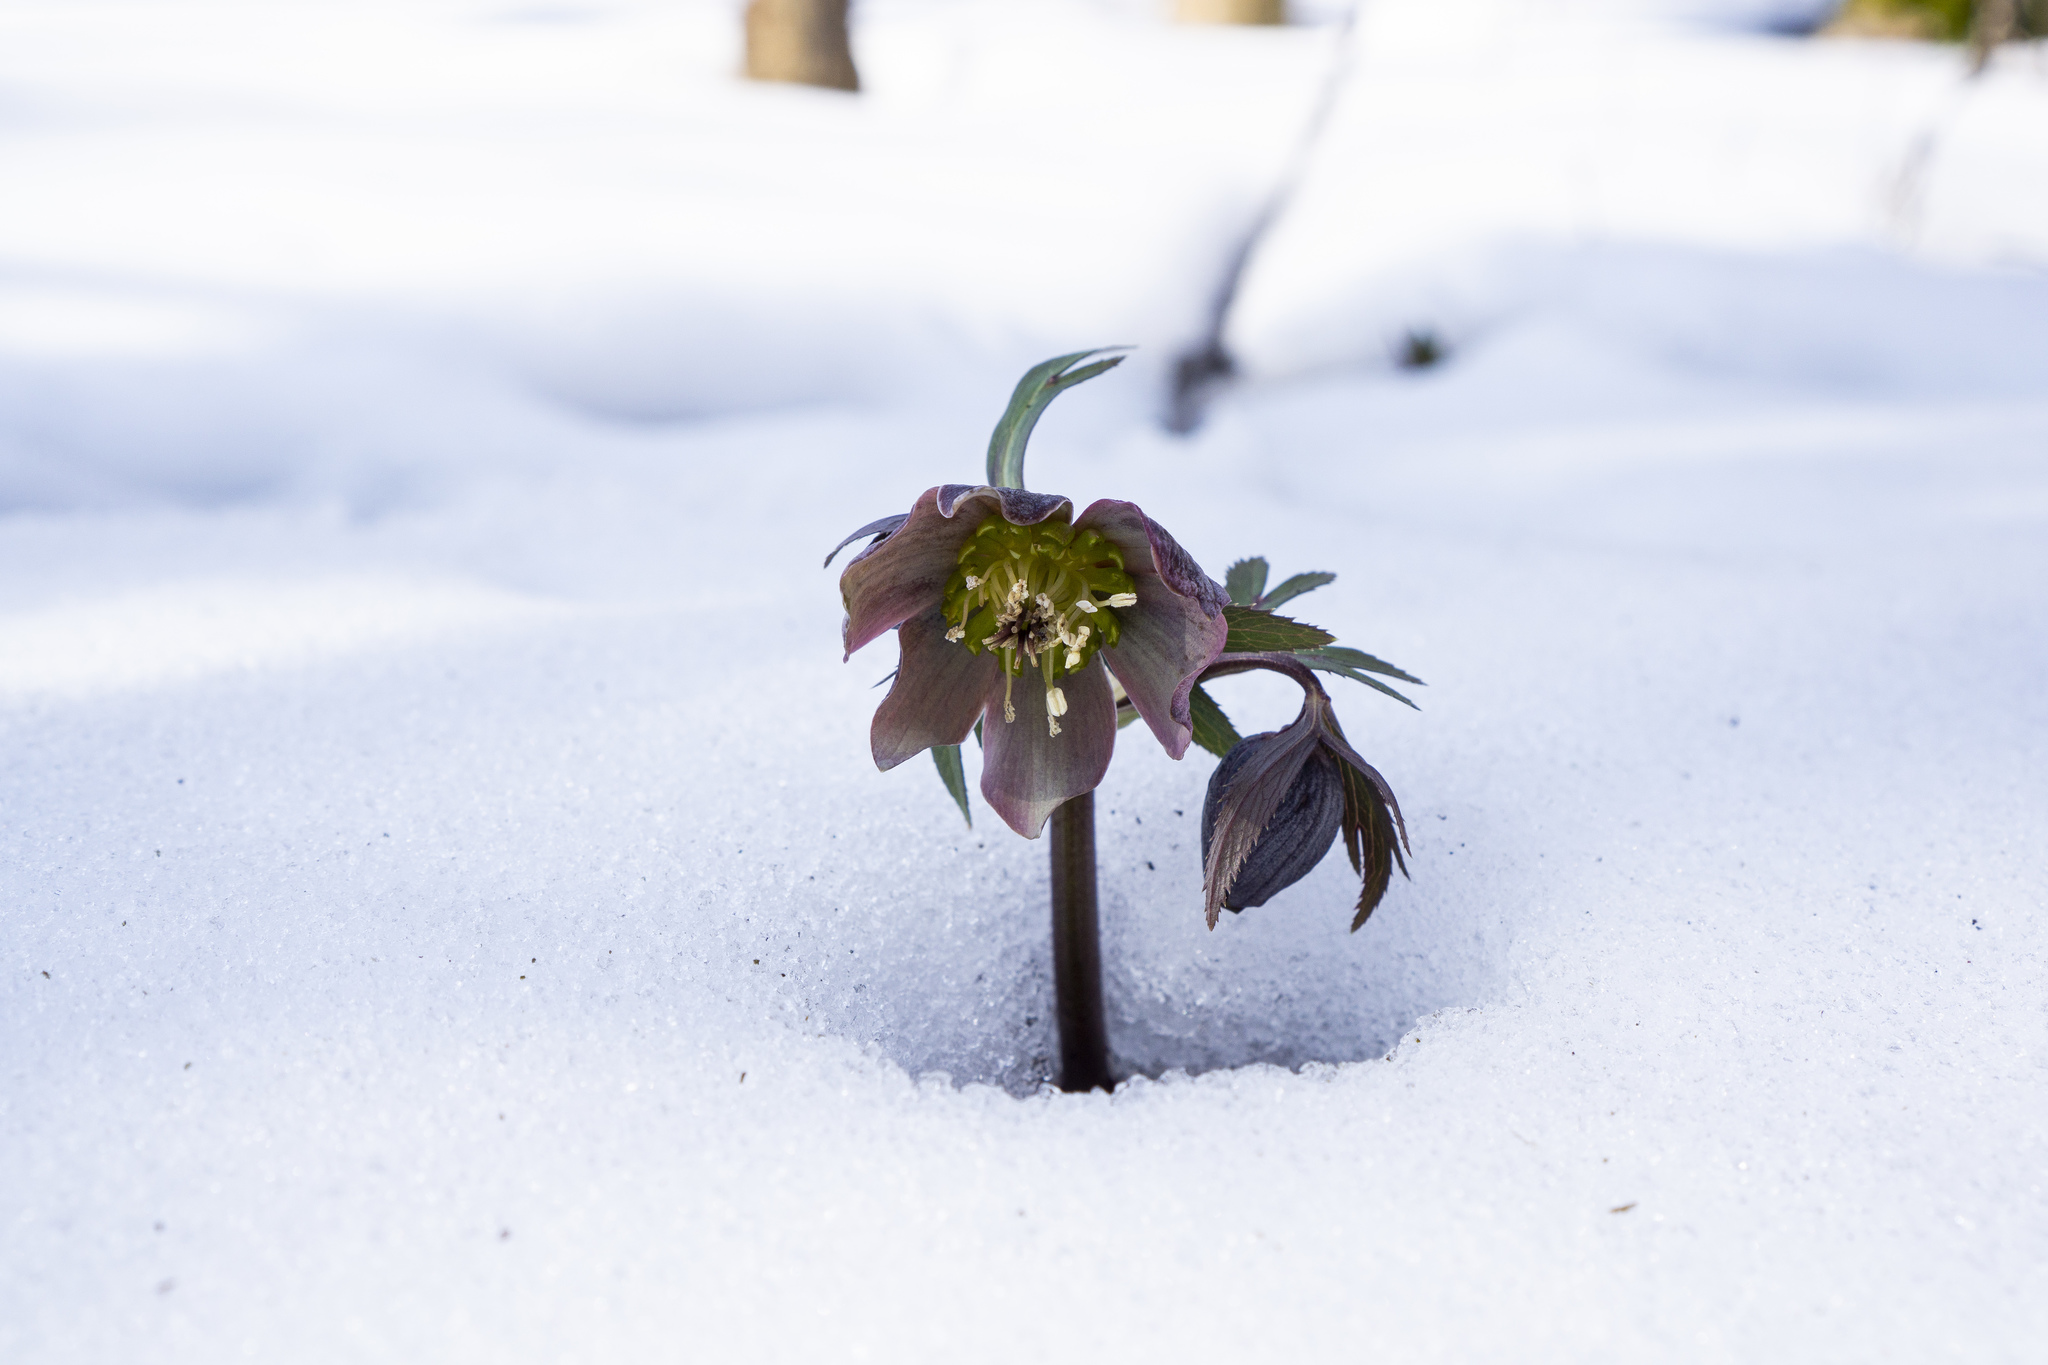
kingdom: Plantae
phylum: Tracheophyta
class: Magnoliopsida
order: Ranunculales
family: Ranunculaceae
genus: Helleborus
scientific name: Helleborus purpurascens
